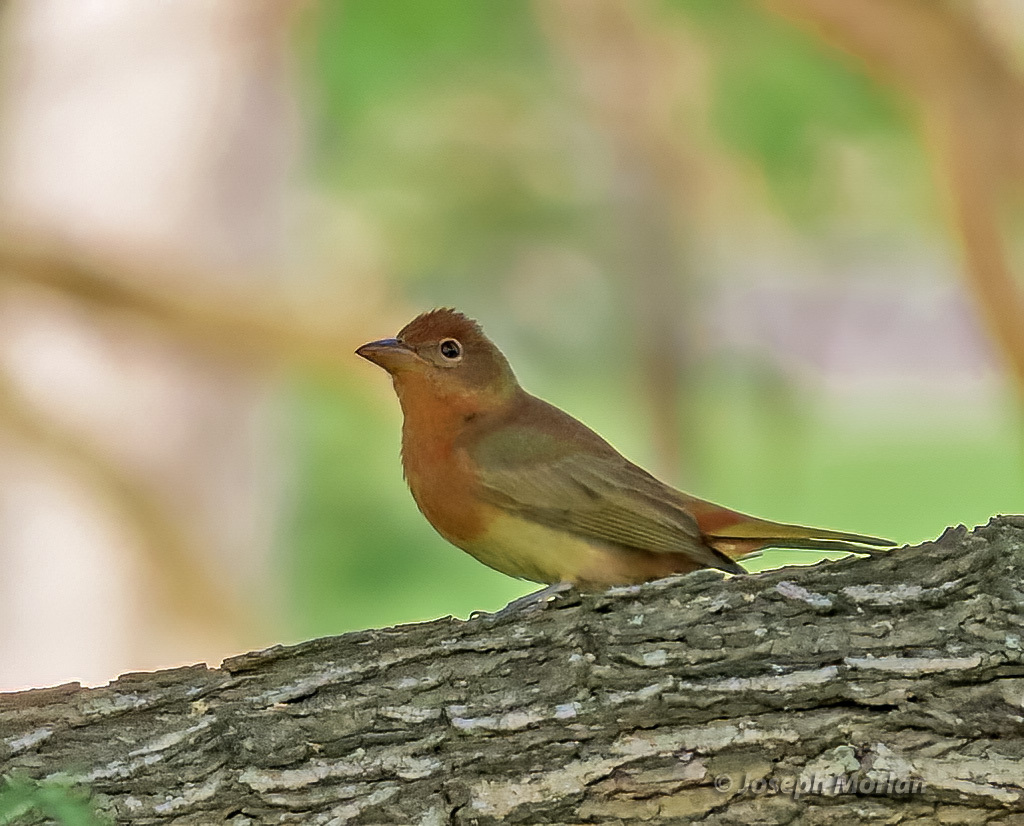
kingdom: Animalia
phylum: Chordata
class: Aves
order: Passeriformes
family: Cardinalidae
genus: Piranga
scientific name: Piranga rubra
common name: Summer tanager
